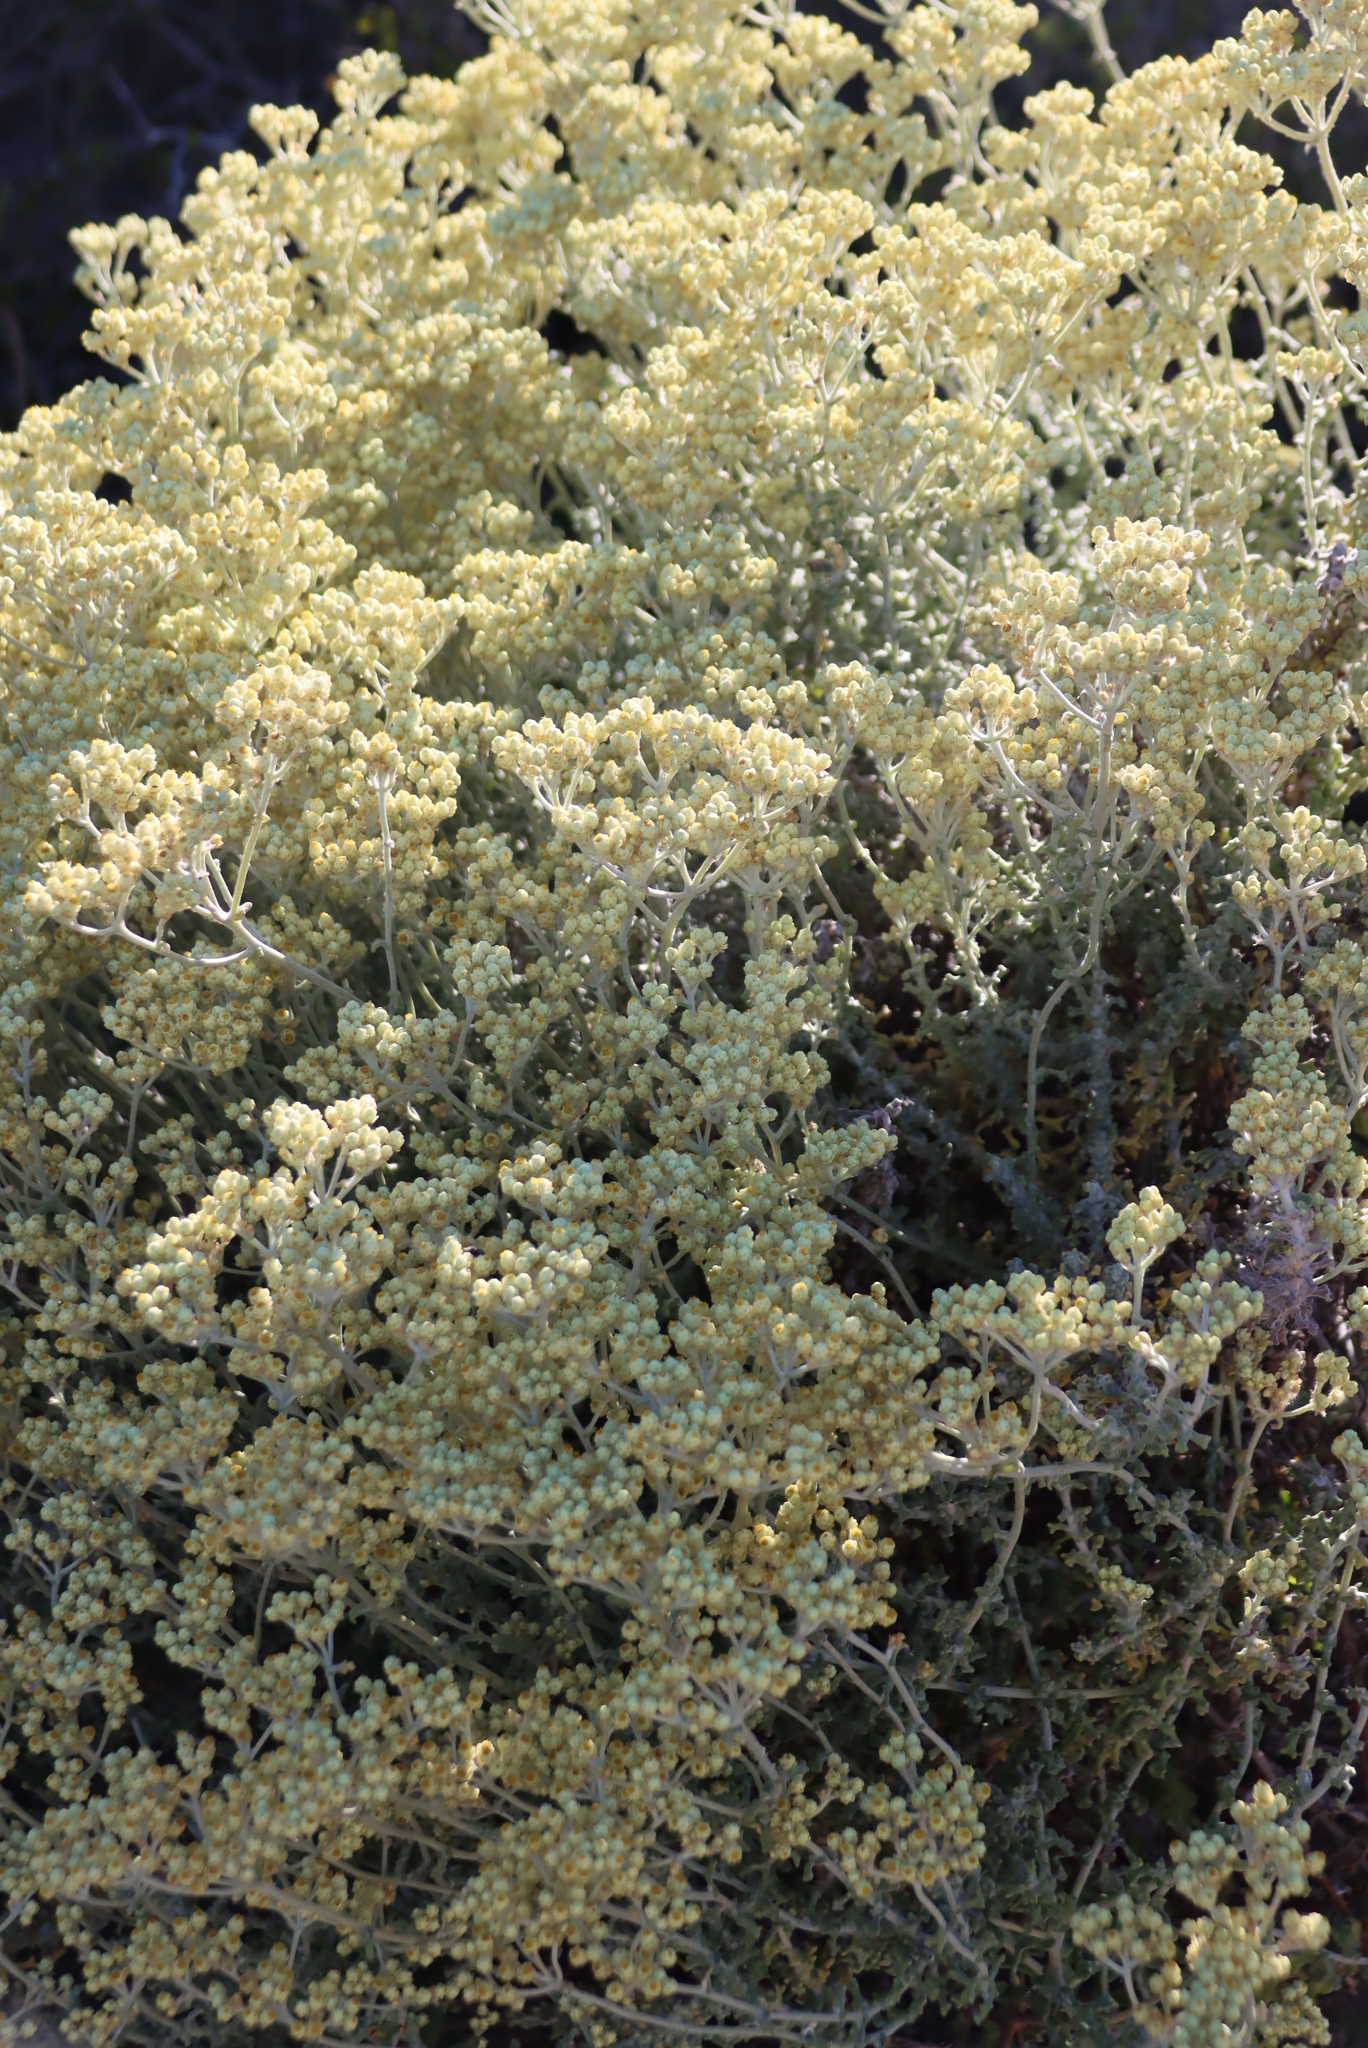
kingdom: Plantae
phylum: Tracheophyta
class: Magnoliopsida
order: Asterales
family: Asteraceae
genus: Helichrysum
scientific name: Helichrysum patulum
